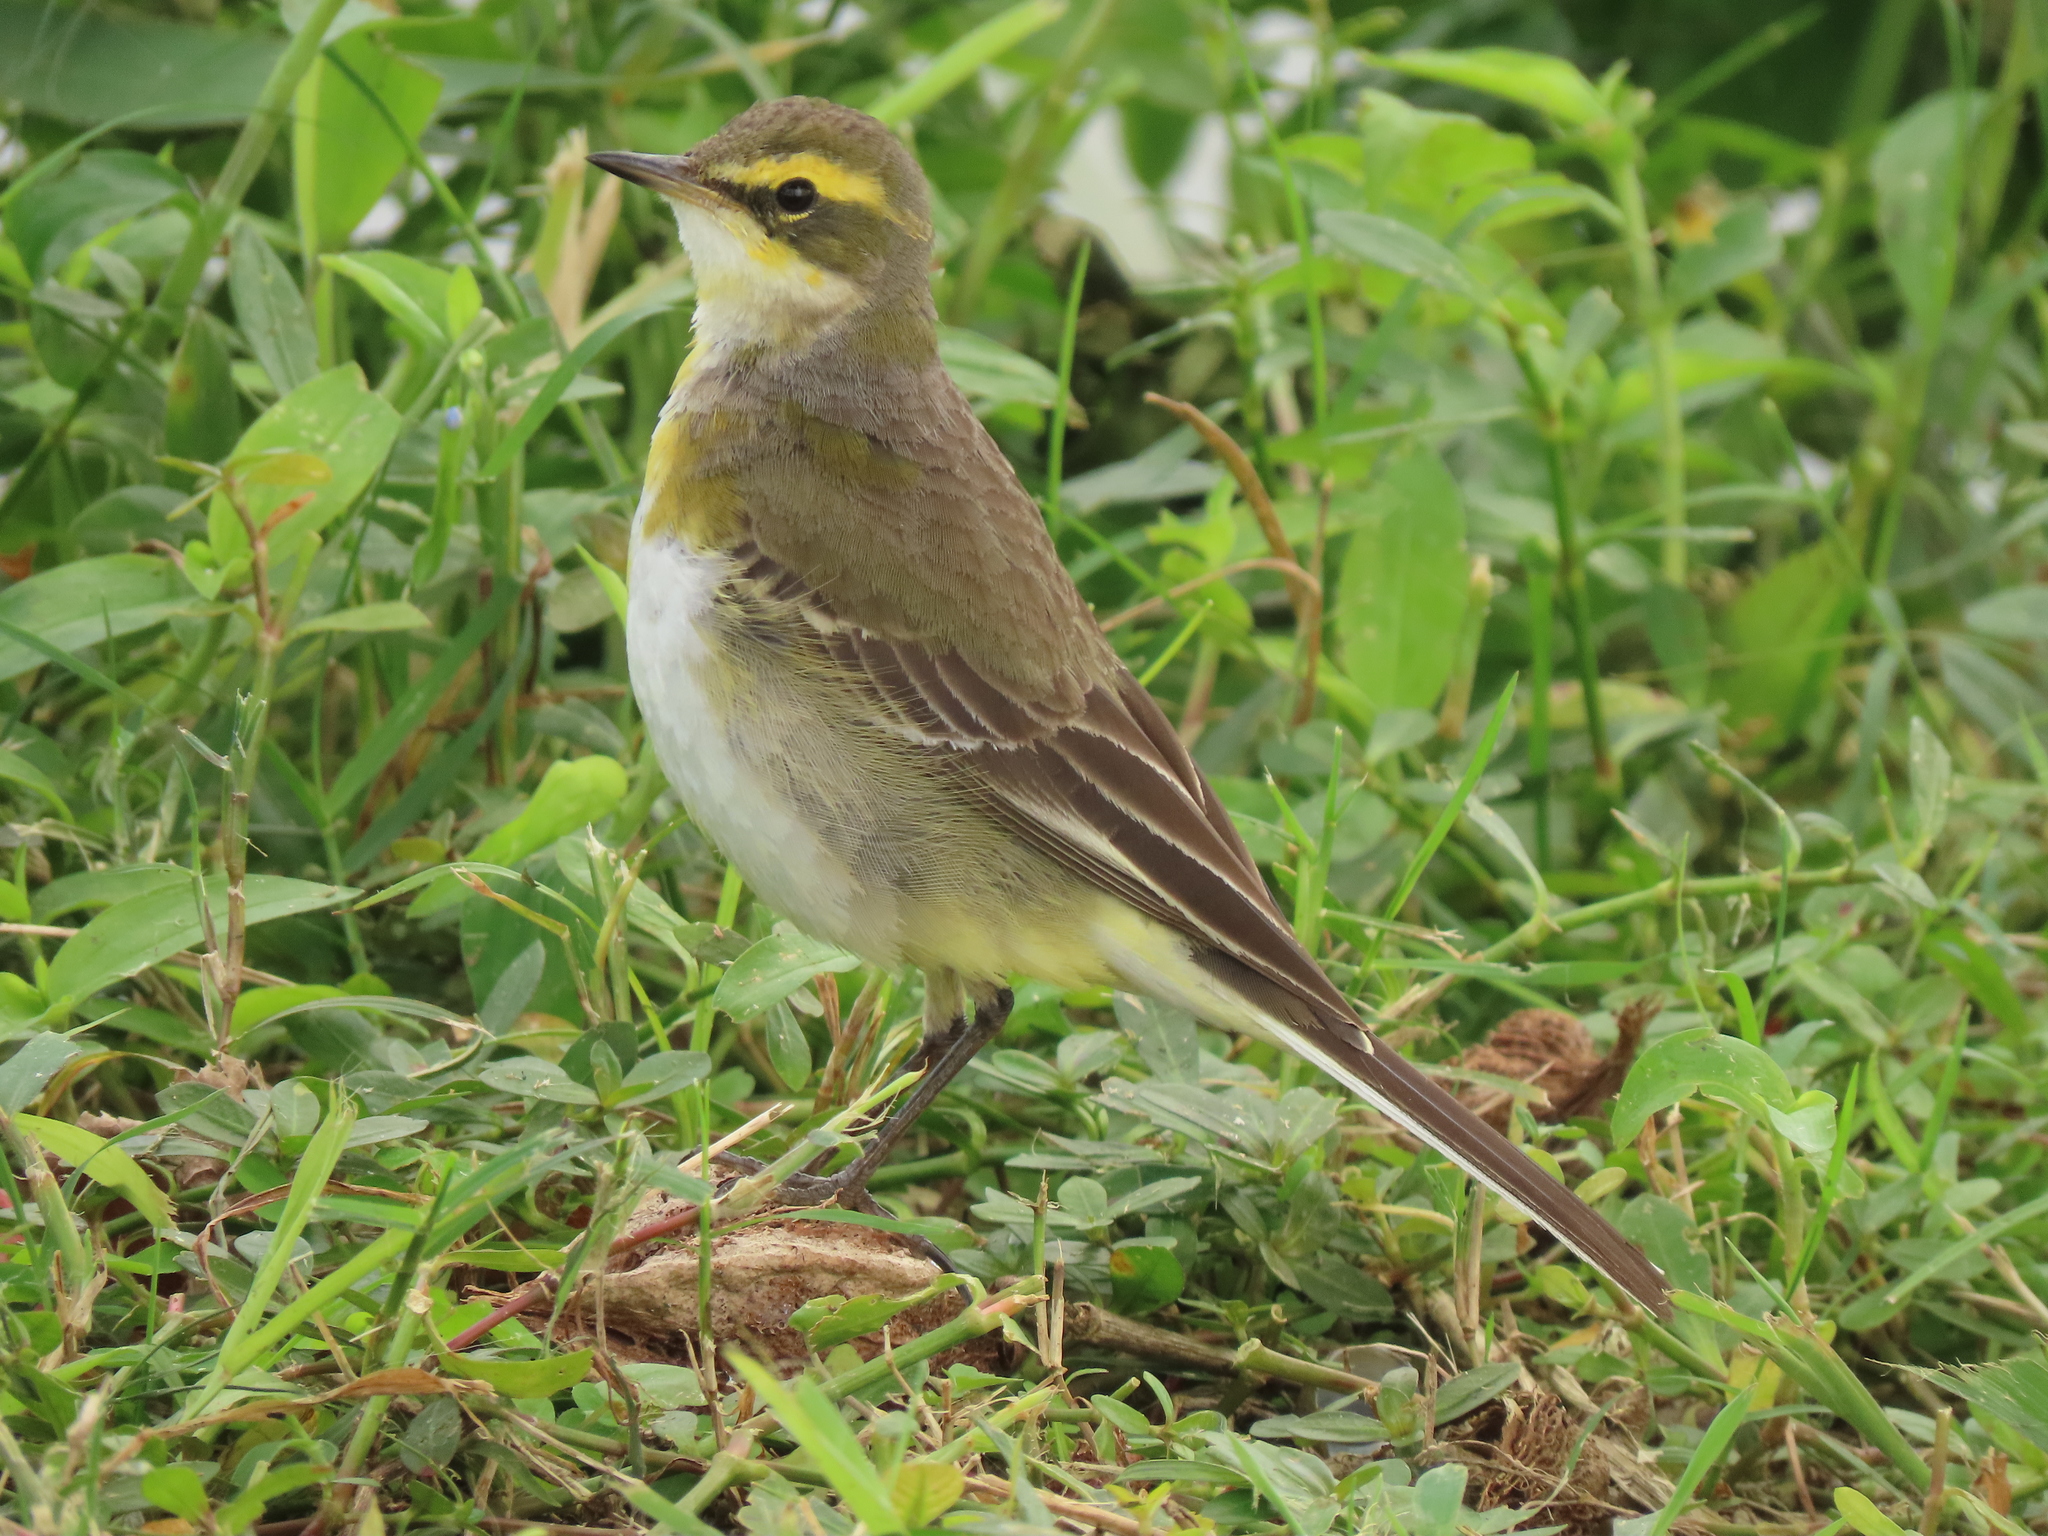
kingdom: Animalia
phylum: Chordata
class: Aves
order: Passeriformes
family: Motacillidae
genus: Motacilla
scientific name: Motacilla tschutschensis
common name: Eastern yellow wagtail
